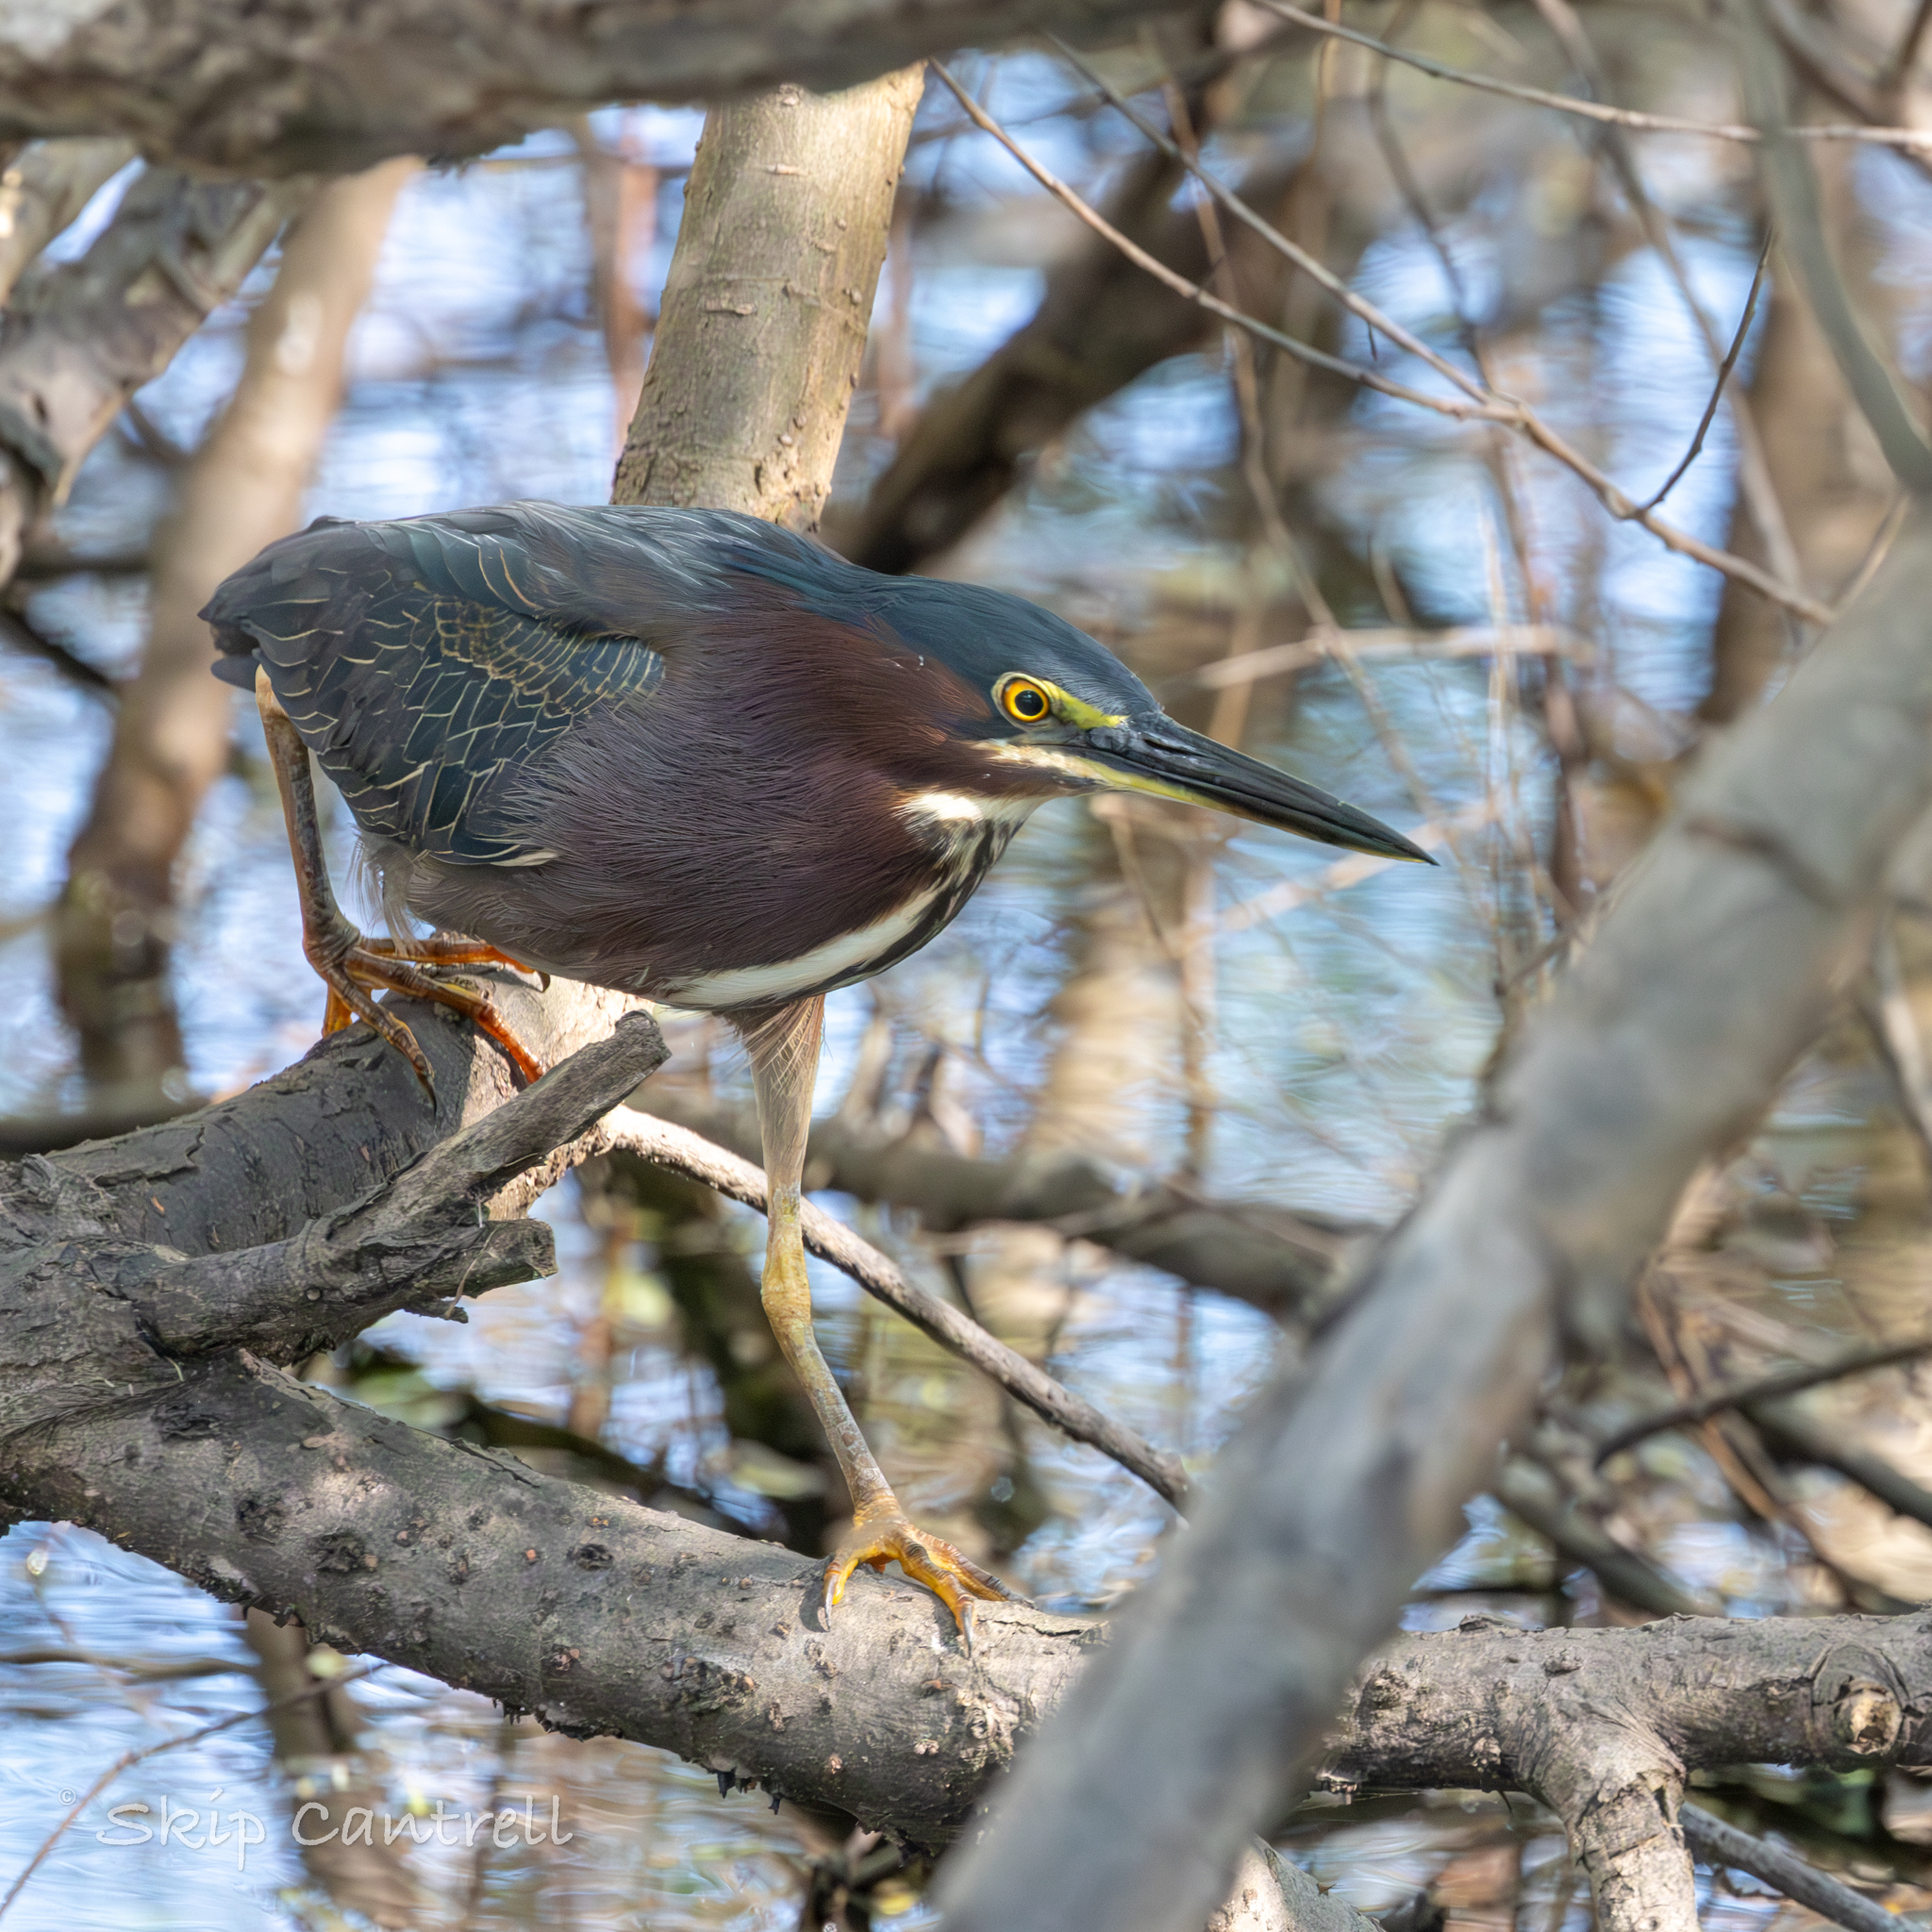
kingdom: Animalia
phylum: Chordata
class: Aves
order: Pelecaniformes
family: Ardeidae
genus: Butorides
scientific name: Butorides virescens
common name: Green heron
